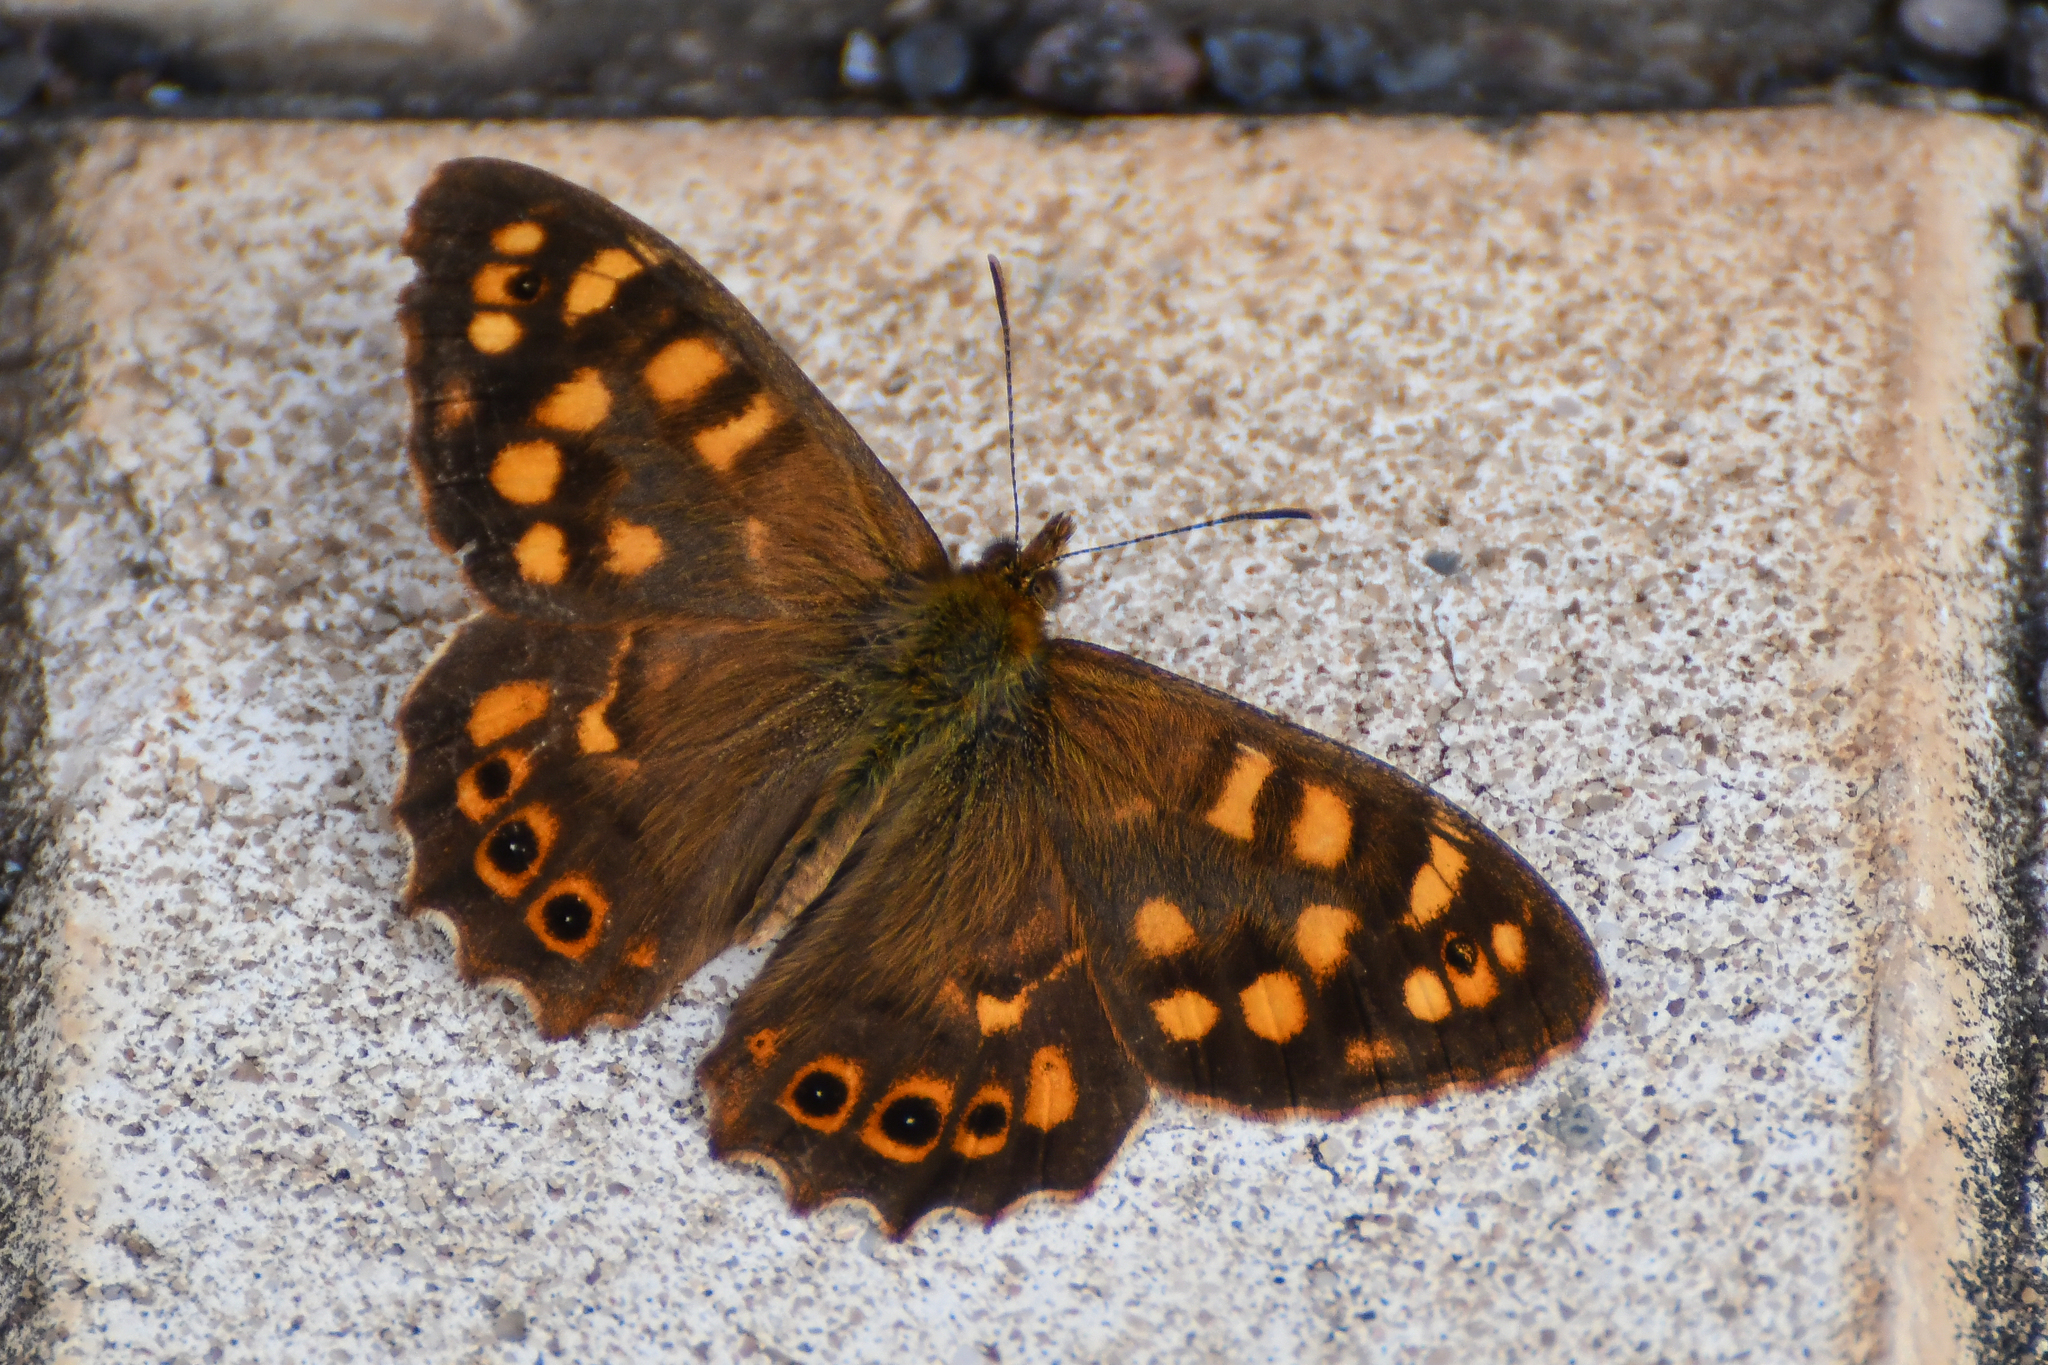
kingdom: Animalia
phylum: Arthropoda
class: Insecta
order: Lepidoptera
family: Nymphalidae
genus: Pararge
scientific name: Pararge aegeria
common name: Speckled wood
